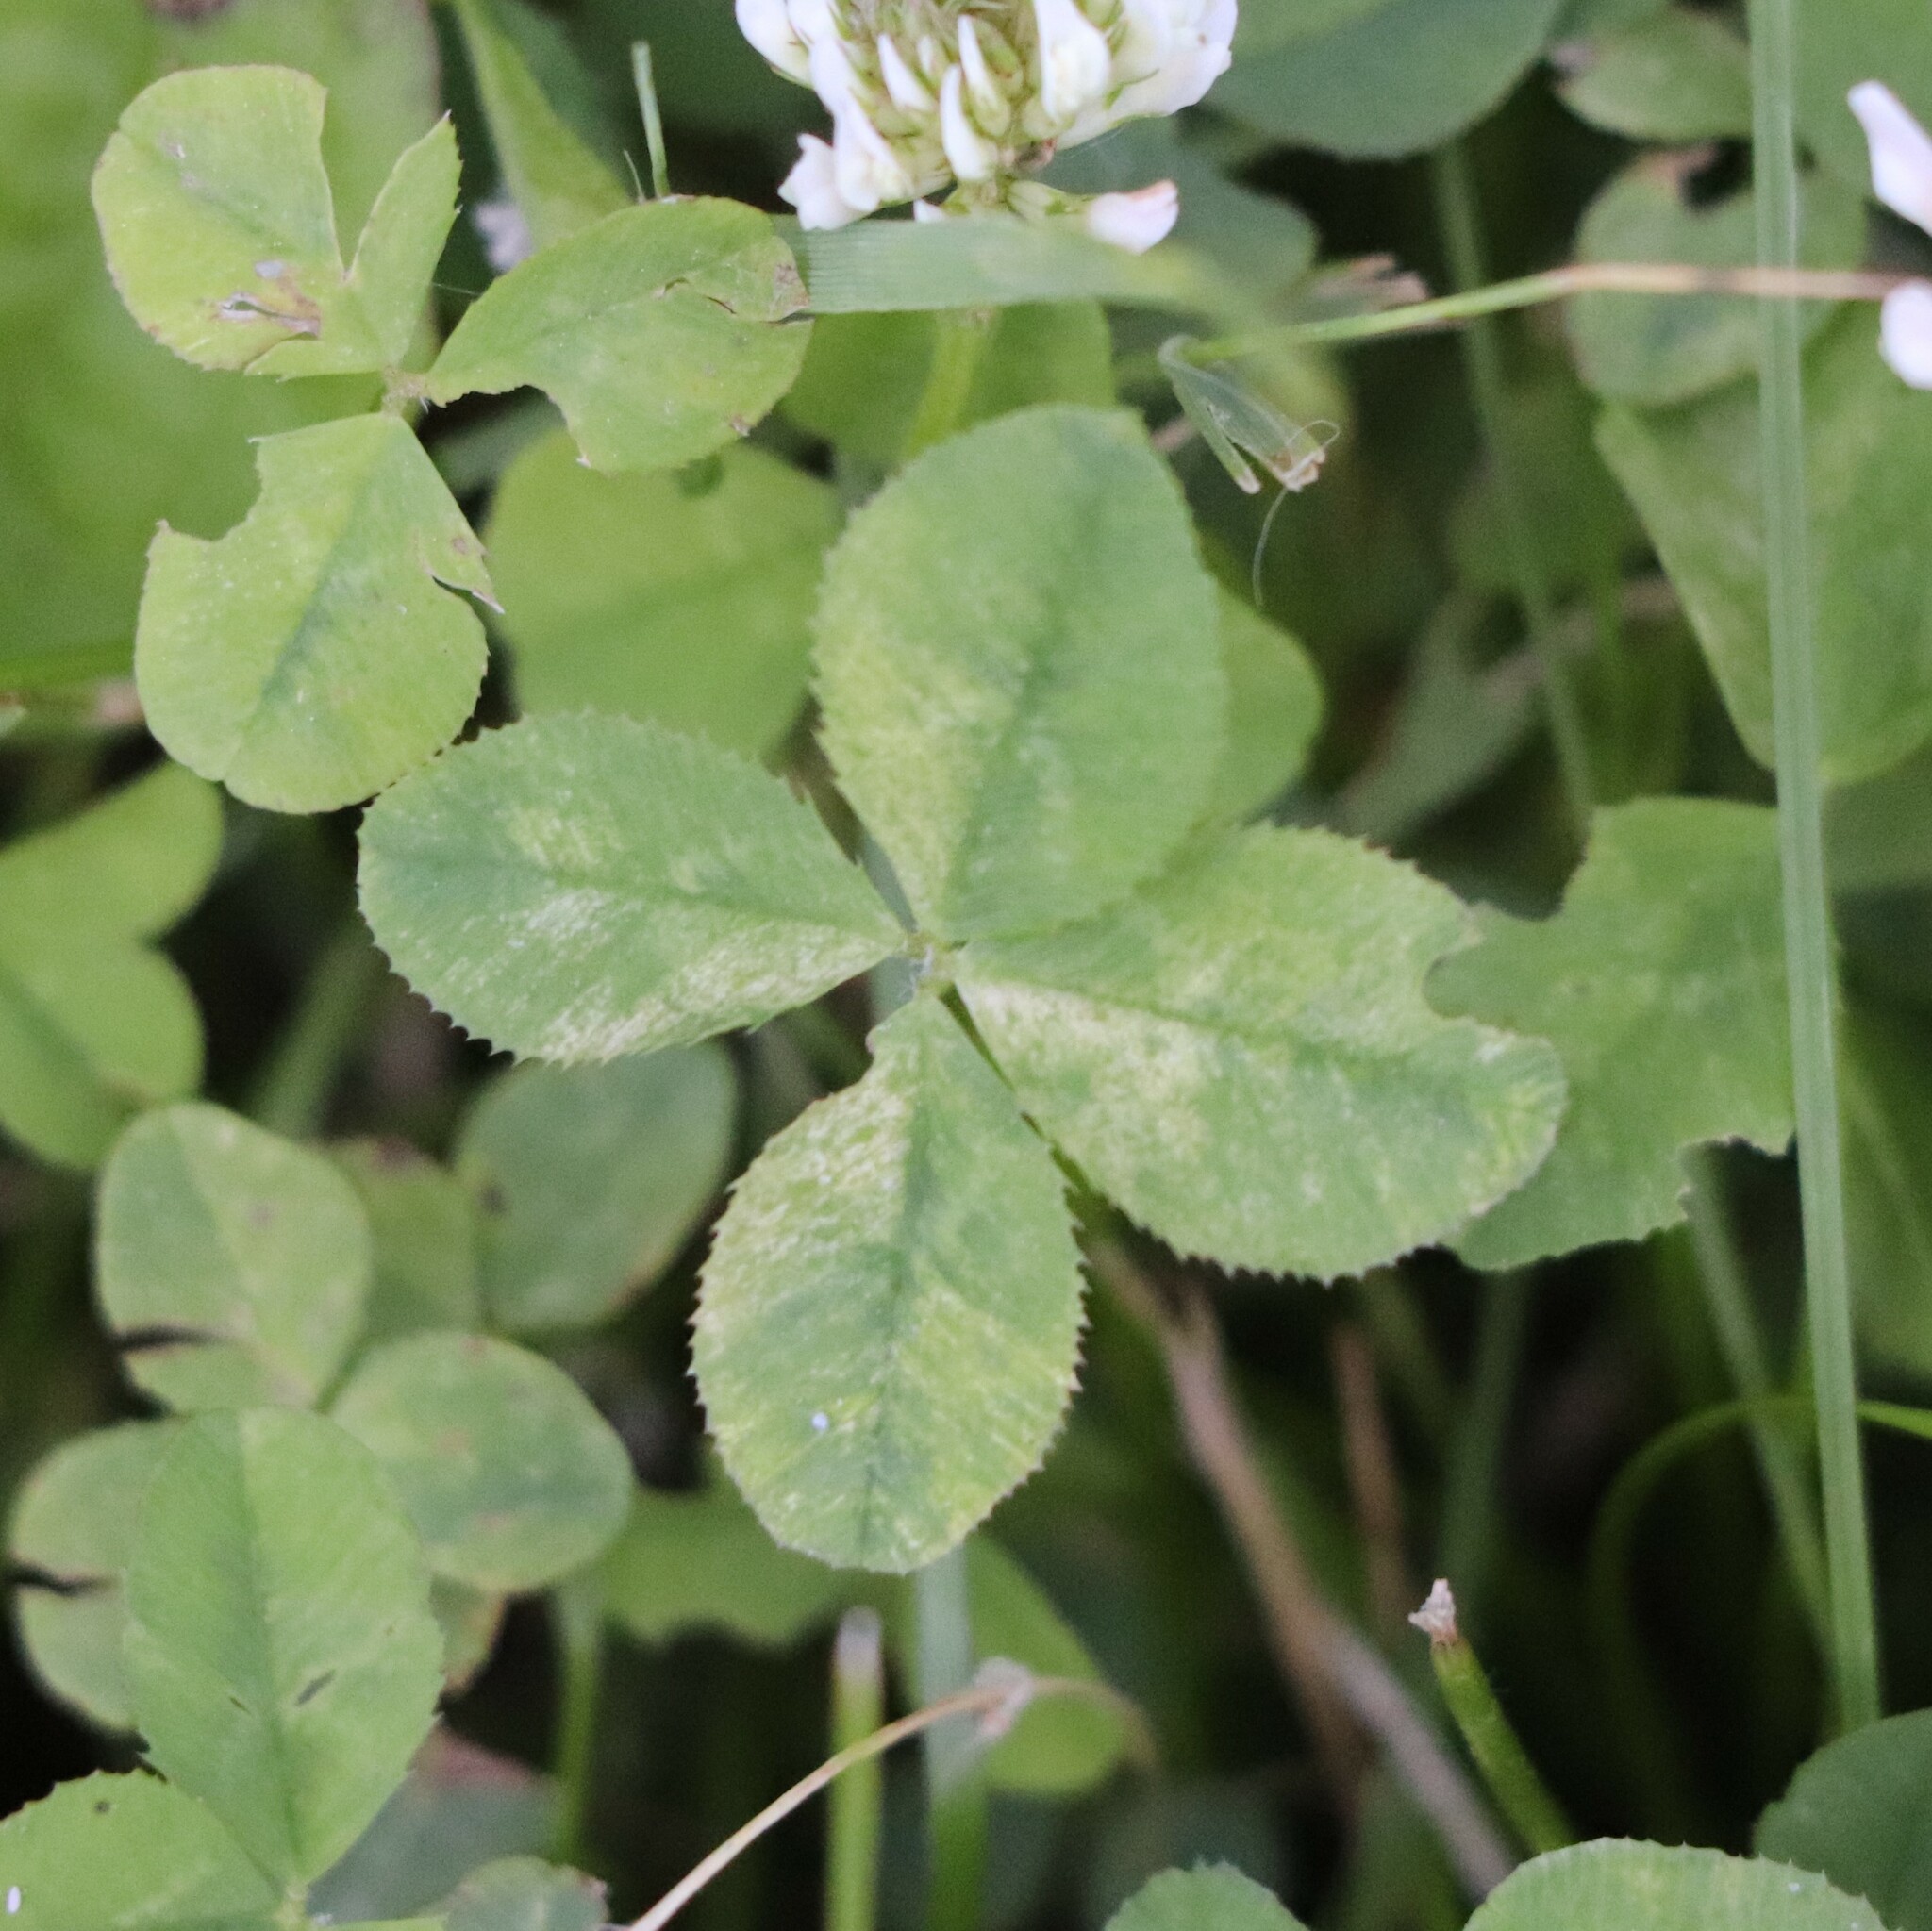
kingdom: Plantae
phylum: Tracheophyta
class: Magnoliopsida
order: Fabales
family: Fabaceae
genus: Trifolium
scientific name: Trifolium repens
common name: White clover
